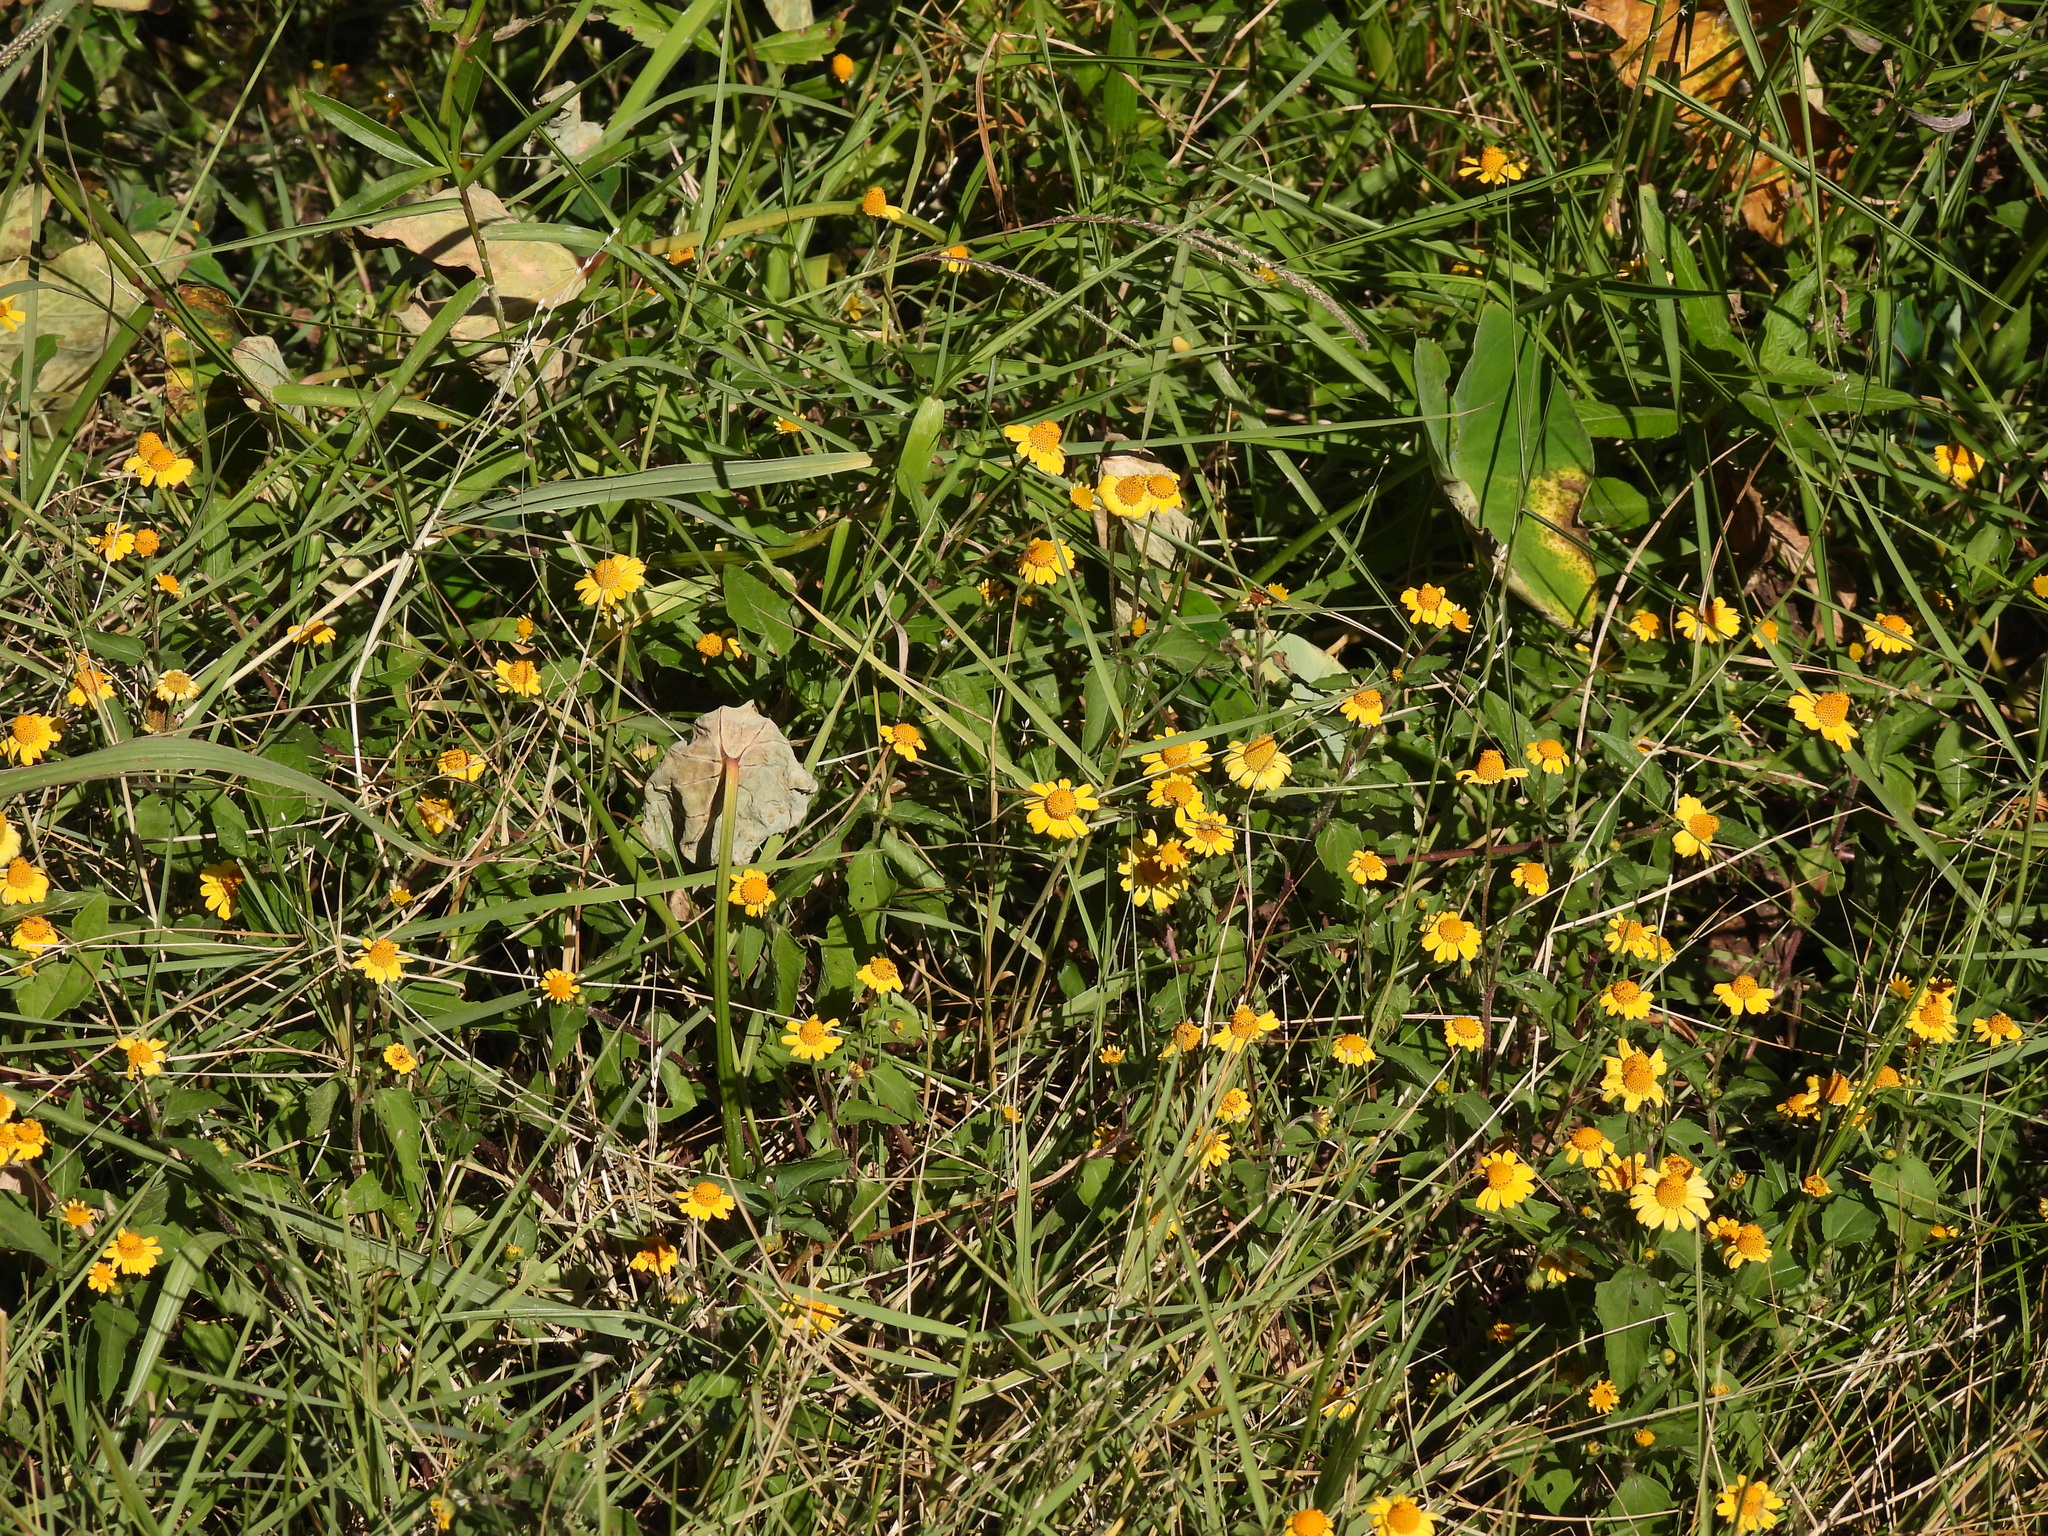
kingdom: Plantae
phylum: Tracheophyta
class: Magnoliopsida
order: Asterales
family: Asteraceae
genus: Acmella
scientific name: Acmella repens
